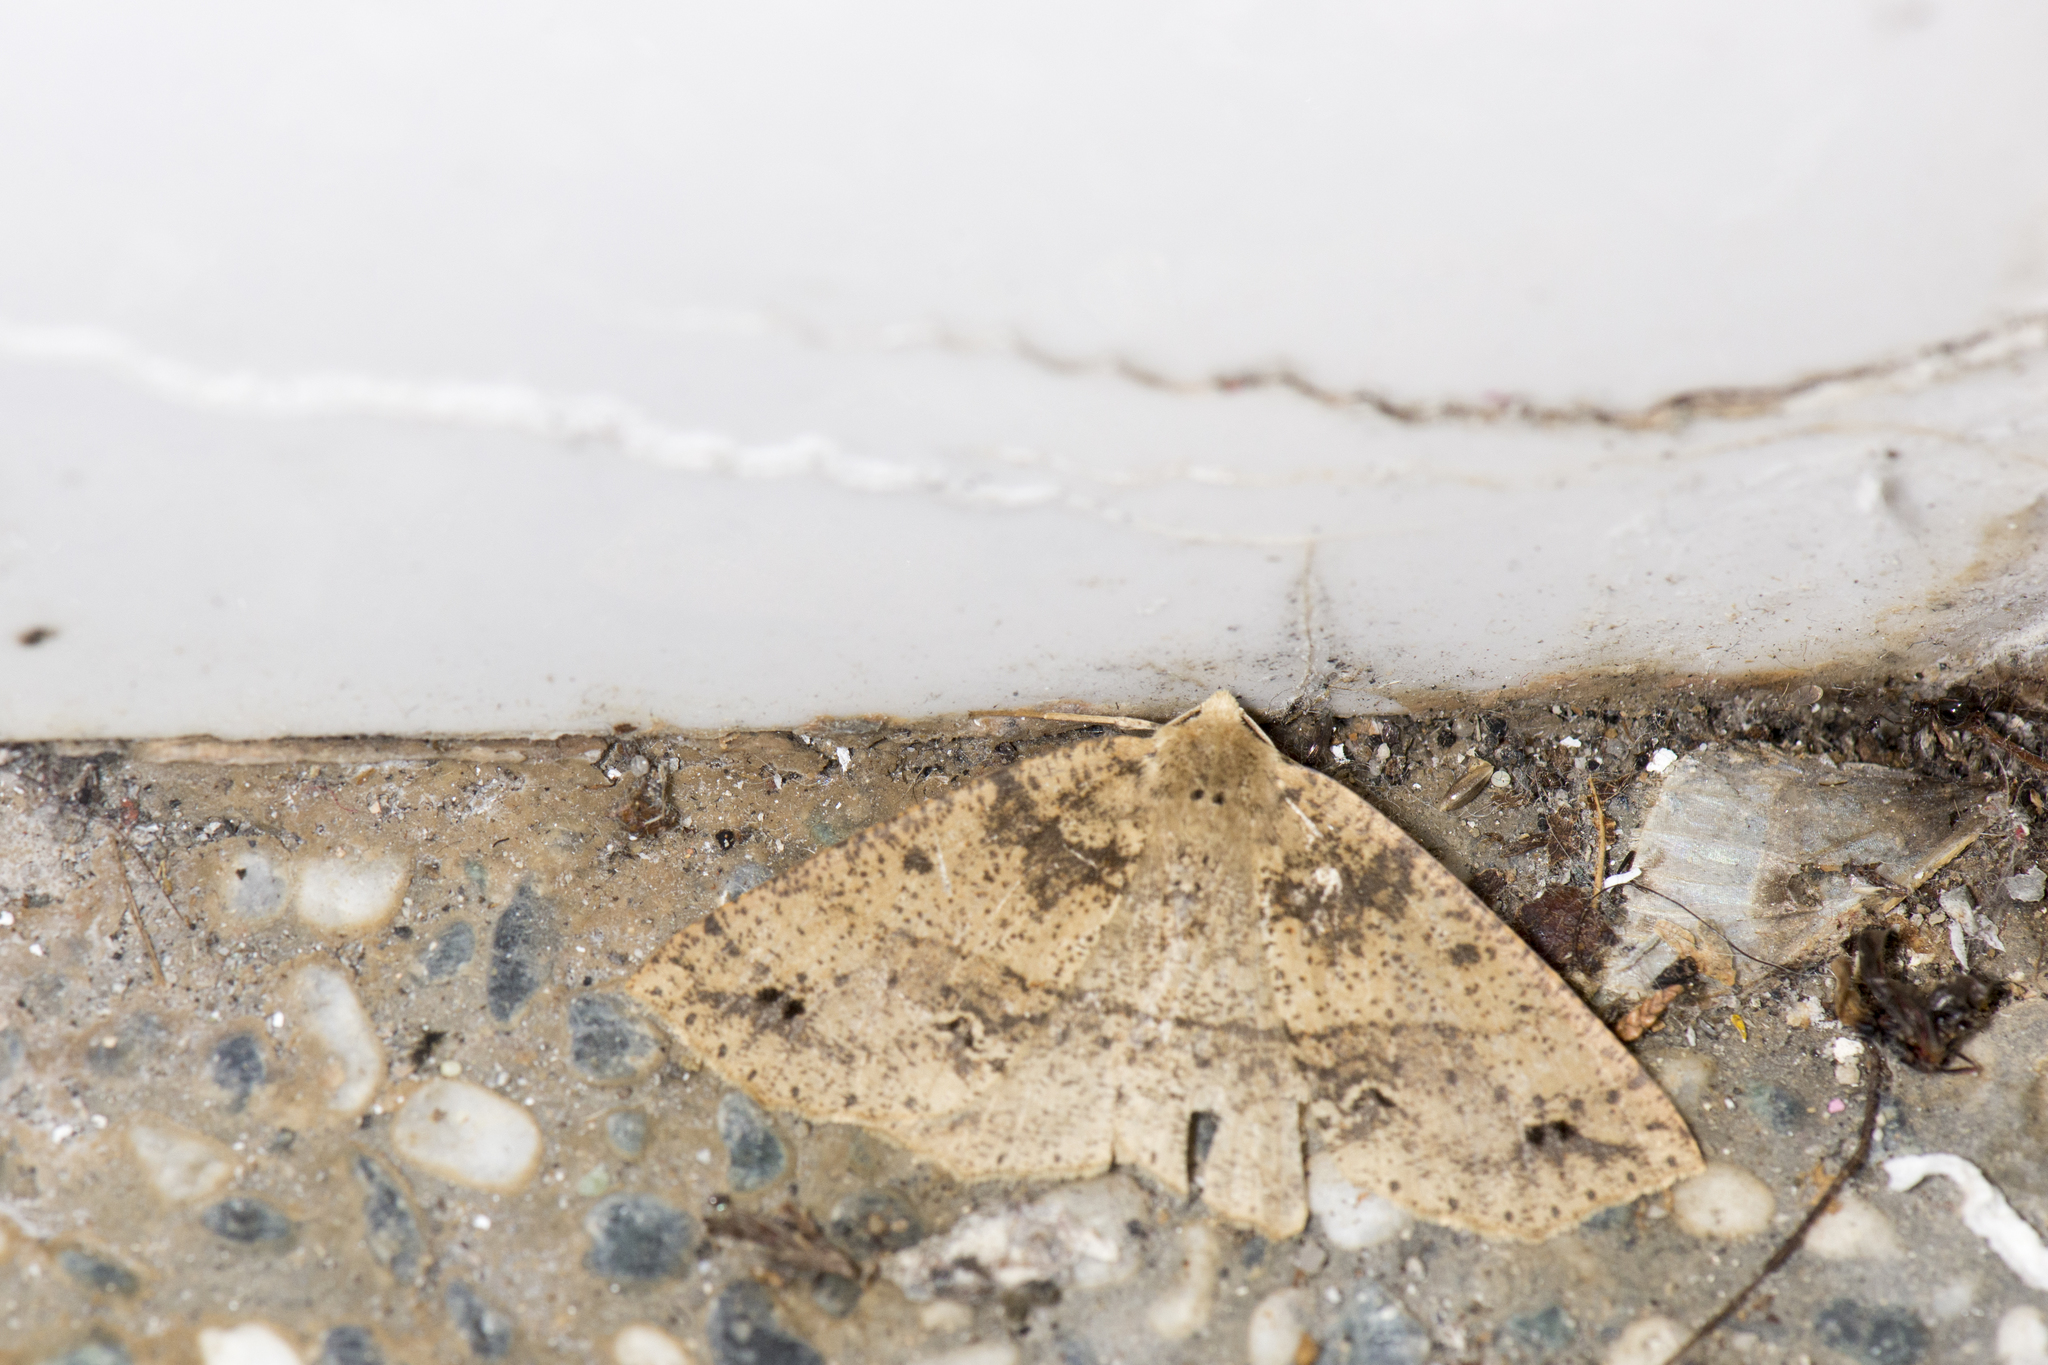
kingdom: Animalia
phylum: Arthropoda
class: Insecta
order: Lepidoptera
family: Geometridae
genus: Psyra
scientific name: Psyra spurcataria
